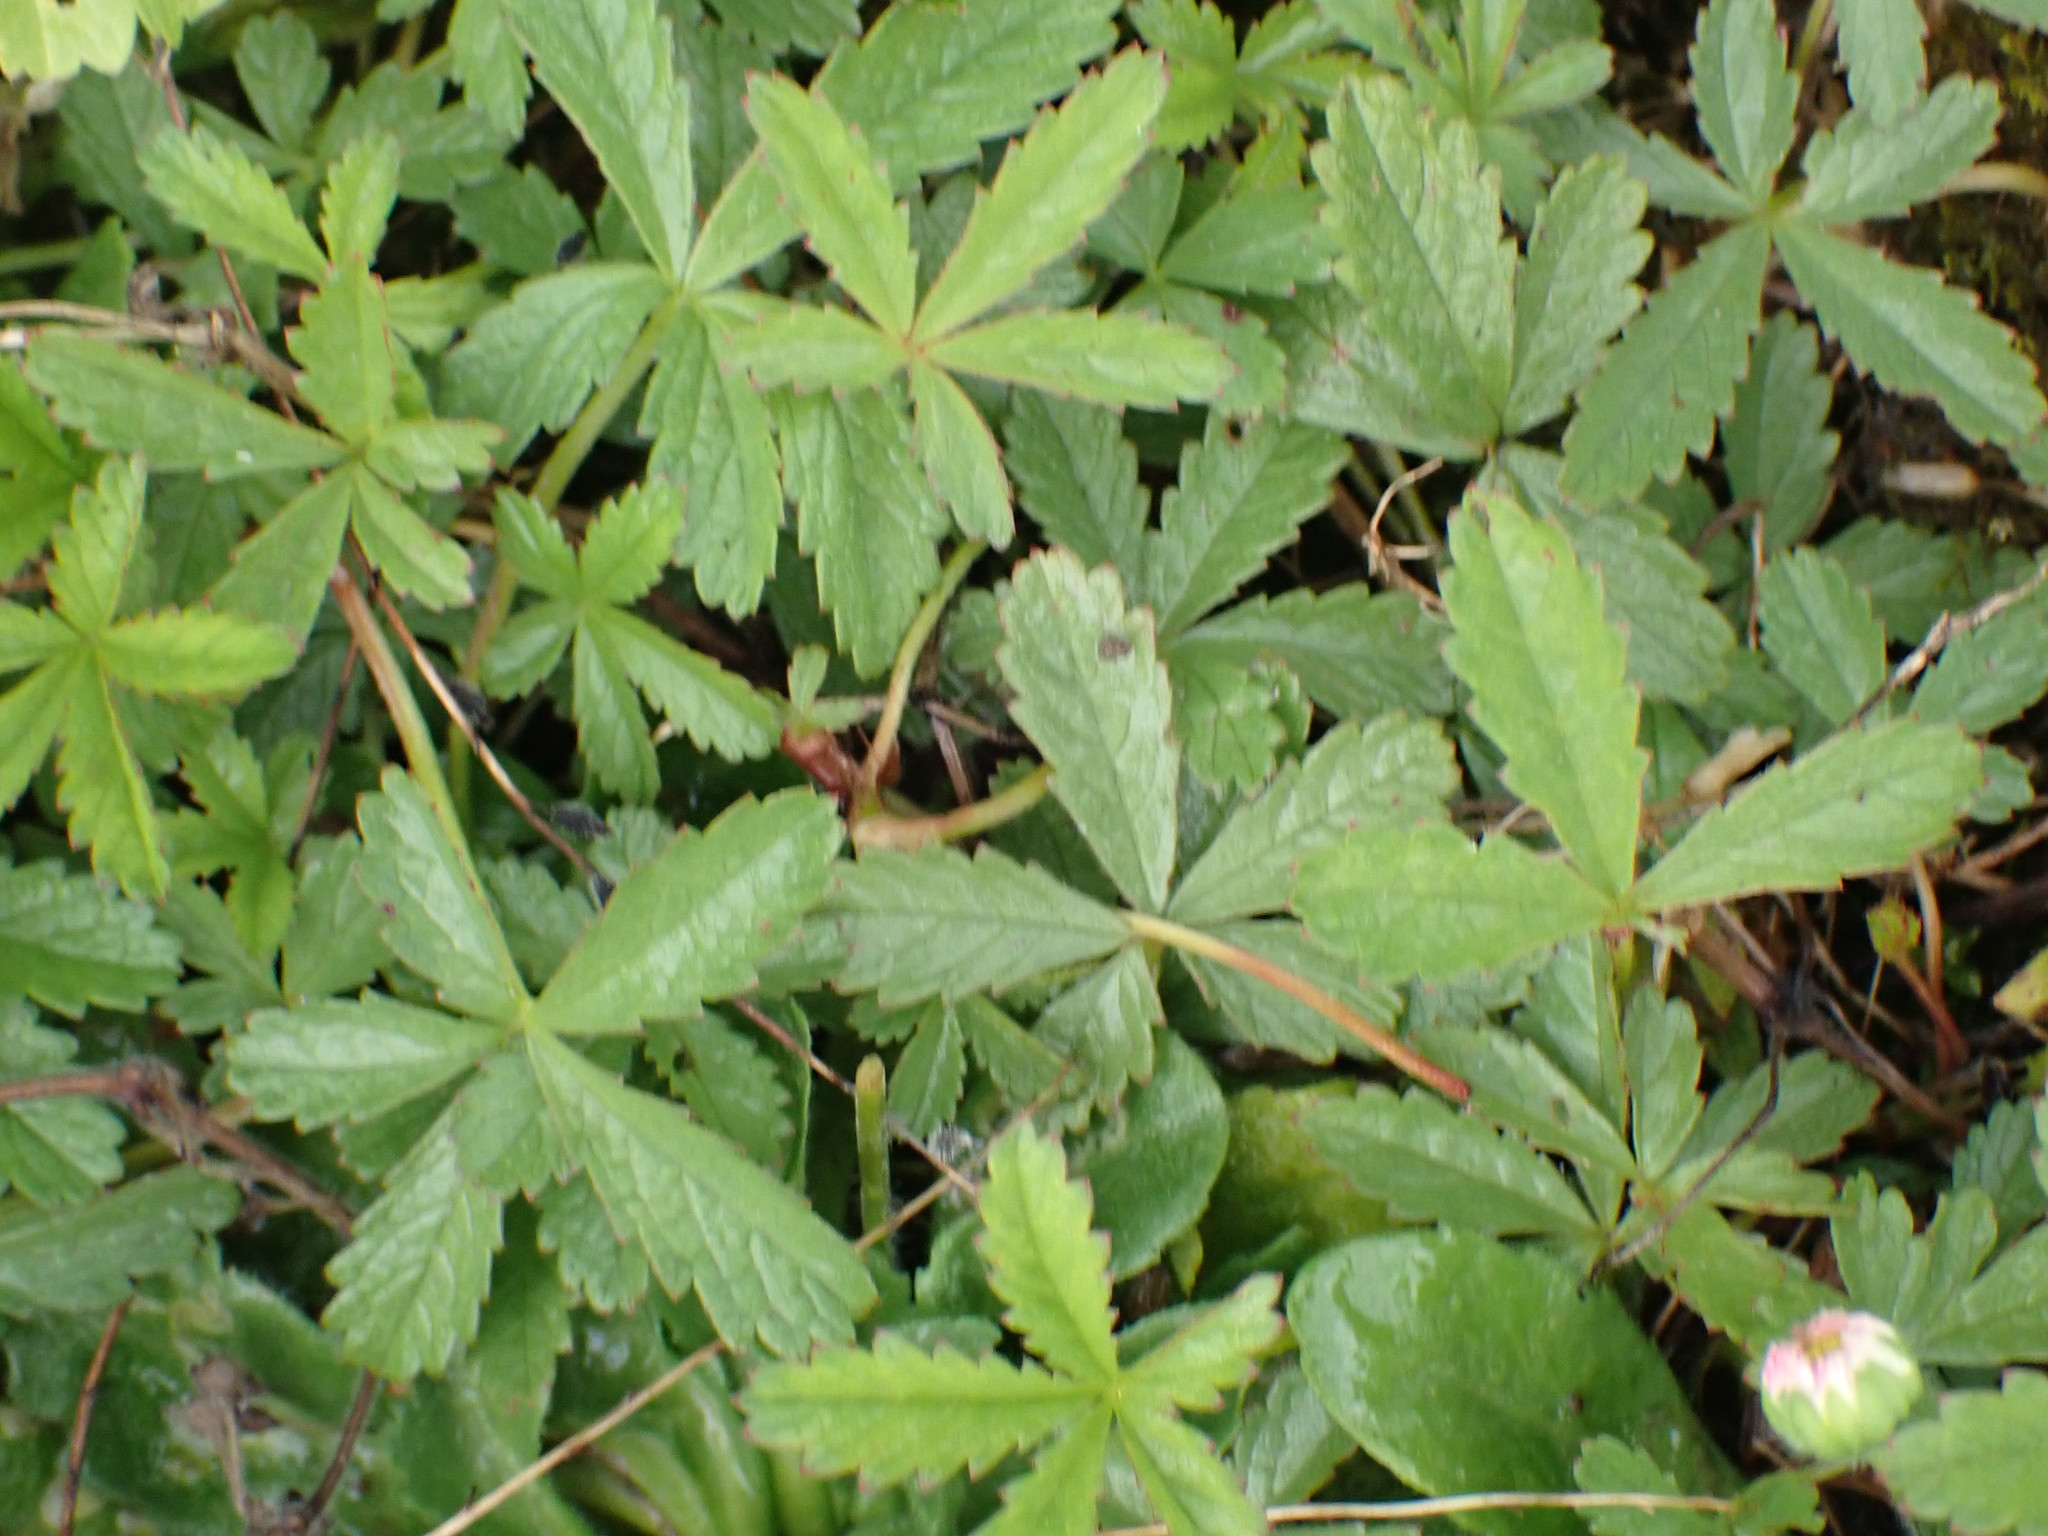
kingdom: Plantae
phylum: Tracheophyta
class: Magnoliopsida
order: Rosales
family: Rosaceae
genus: Potentilla
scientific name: Potentilla reptans
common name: Creeping cinquefoil
